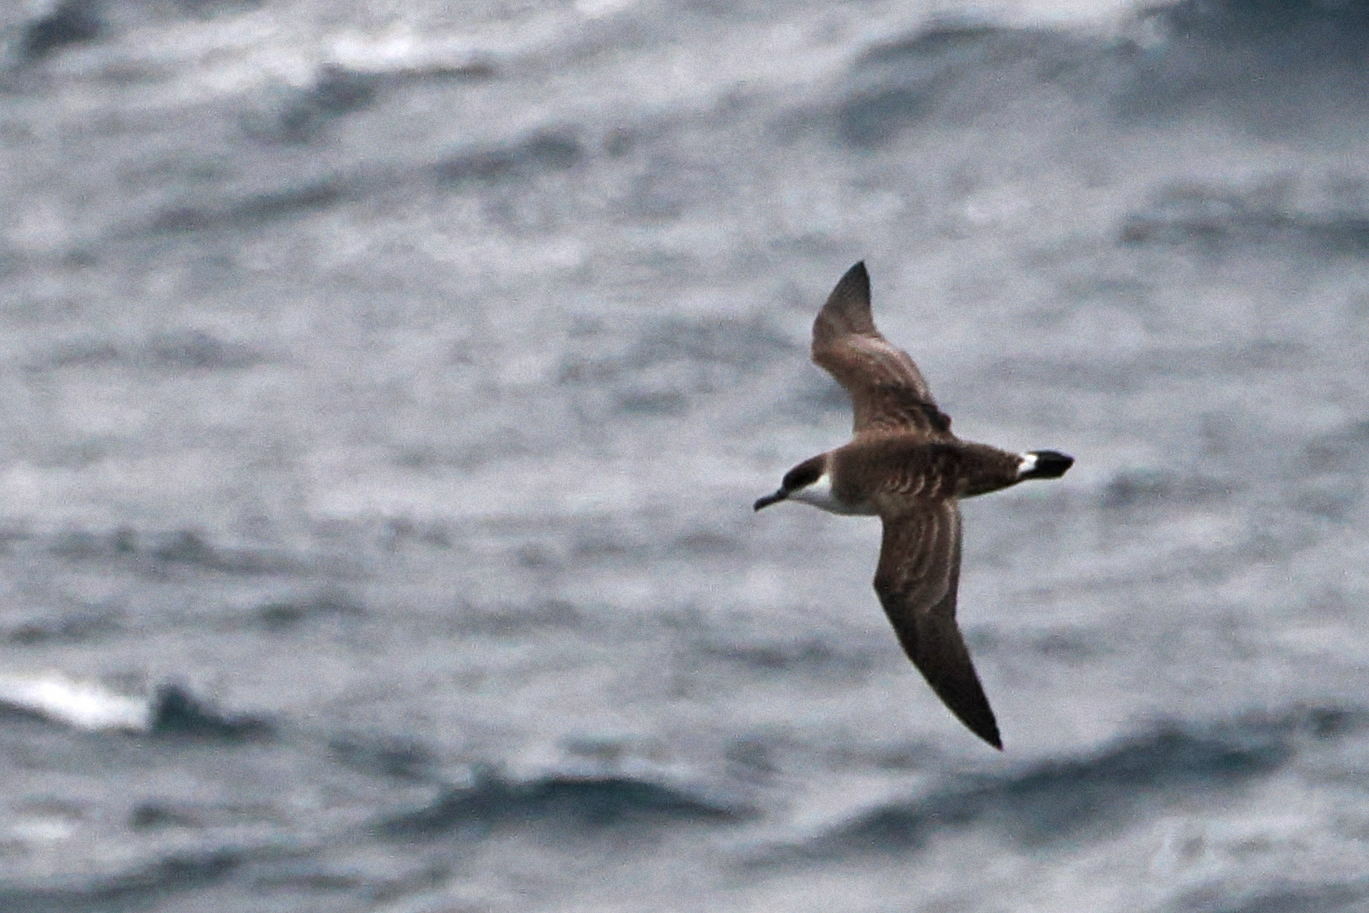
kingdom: Animalia
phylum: Chordata
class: Aves
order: Procellariiformes
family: Procellariidae
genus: Puffinus
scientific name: Puffinus gravis
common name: Great shearwater
